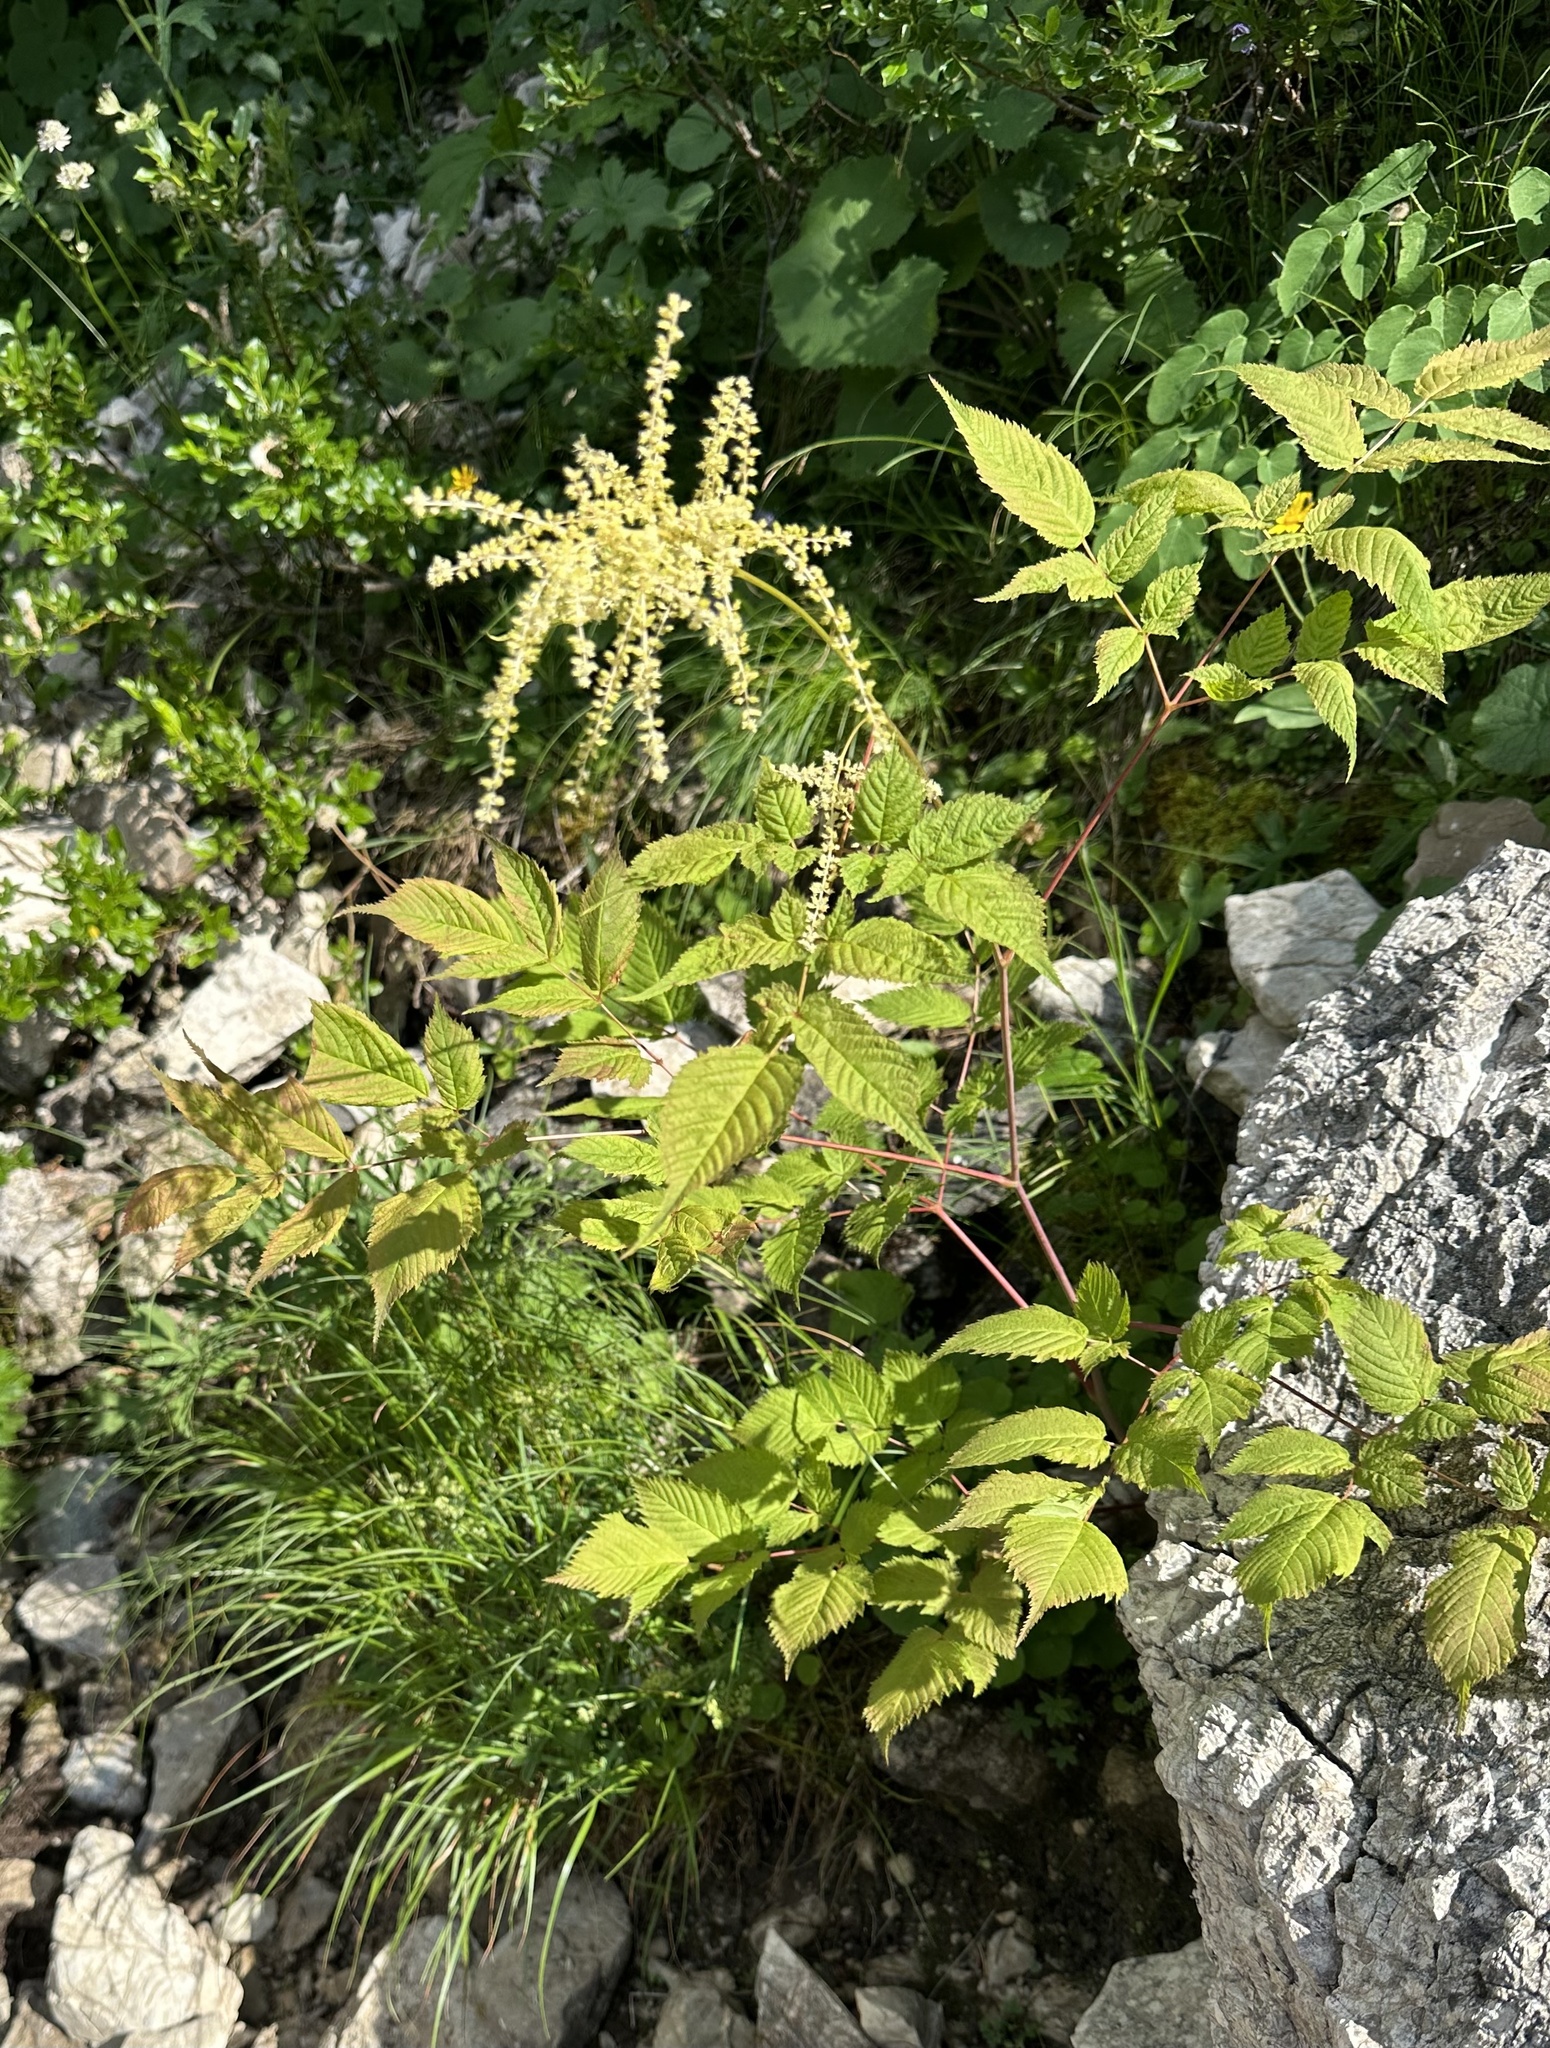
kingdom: Plantae
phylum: Tracheophyta
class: Magnoliopsida
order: Rosales
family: Rosaceae
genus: Aruncus
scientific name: Aruncus dioicus
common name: Buck's-beard
